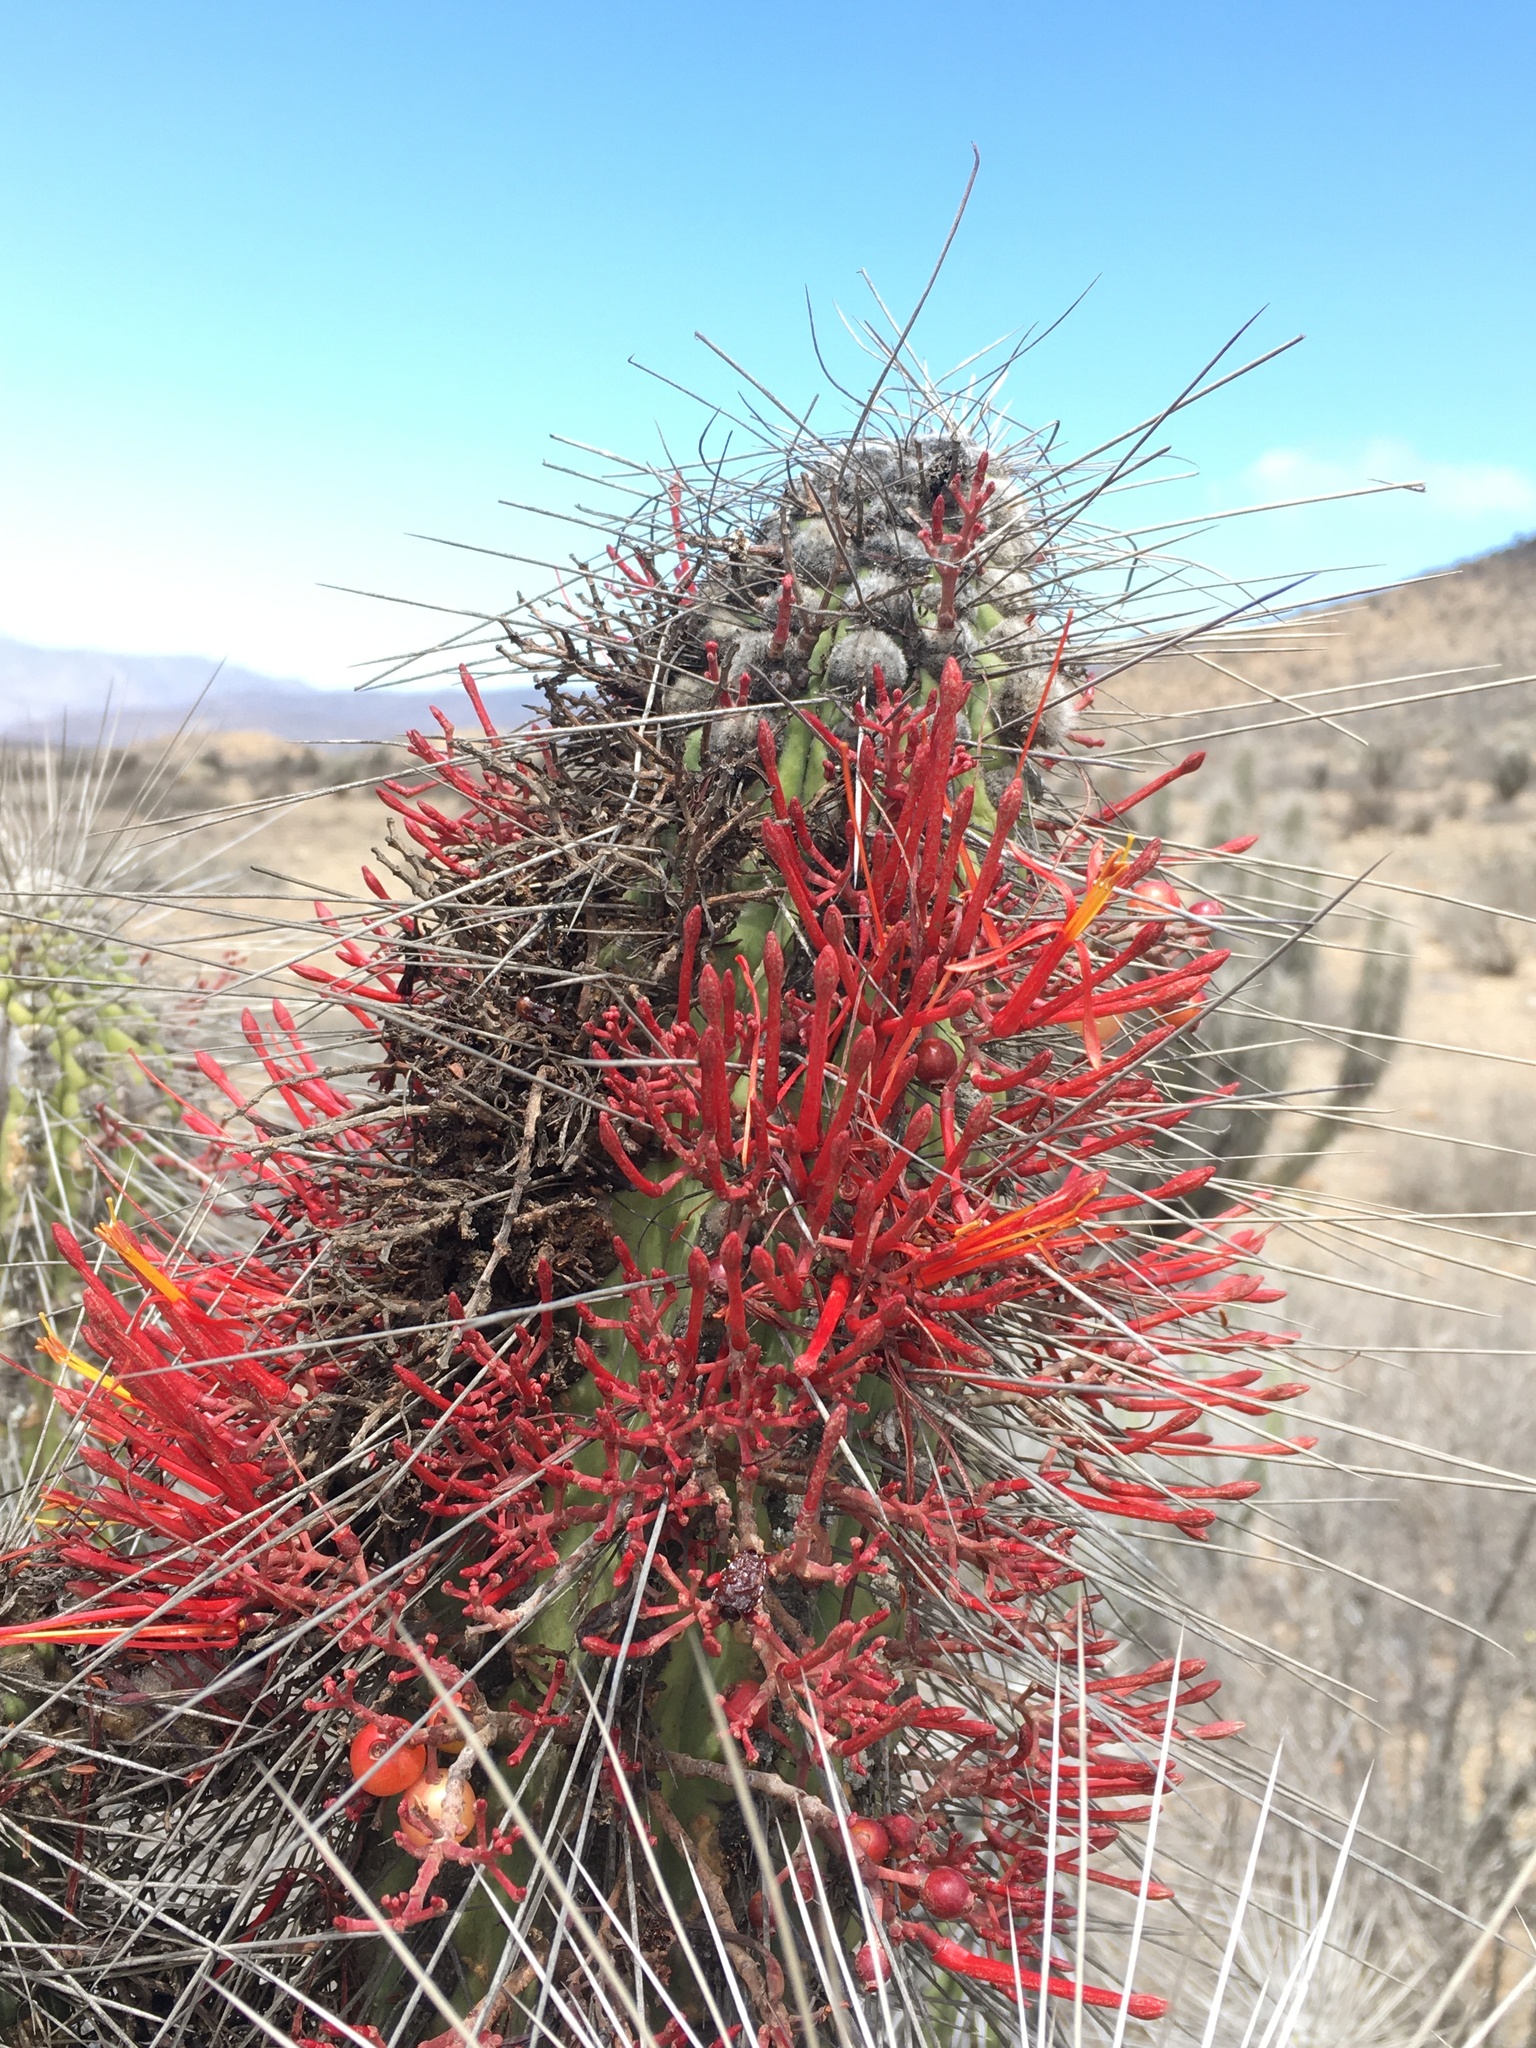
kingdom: Plantae
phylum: Tracheophyta
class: Magnoliopsida
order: Santalales
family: Loranthaceae
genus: Tristerix
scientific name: Tristerix aphyllus
